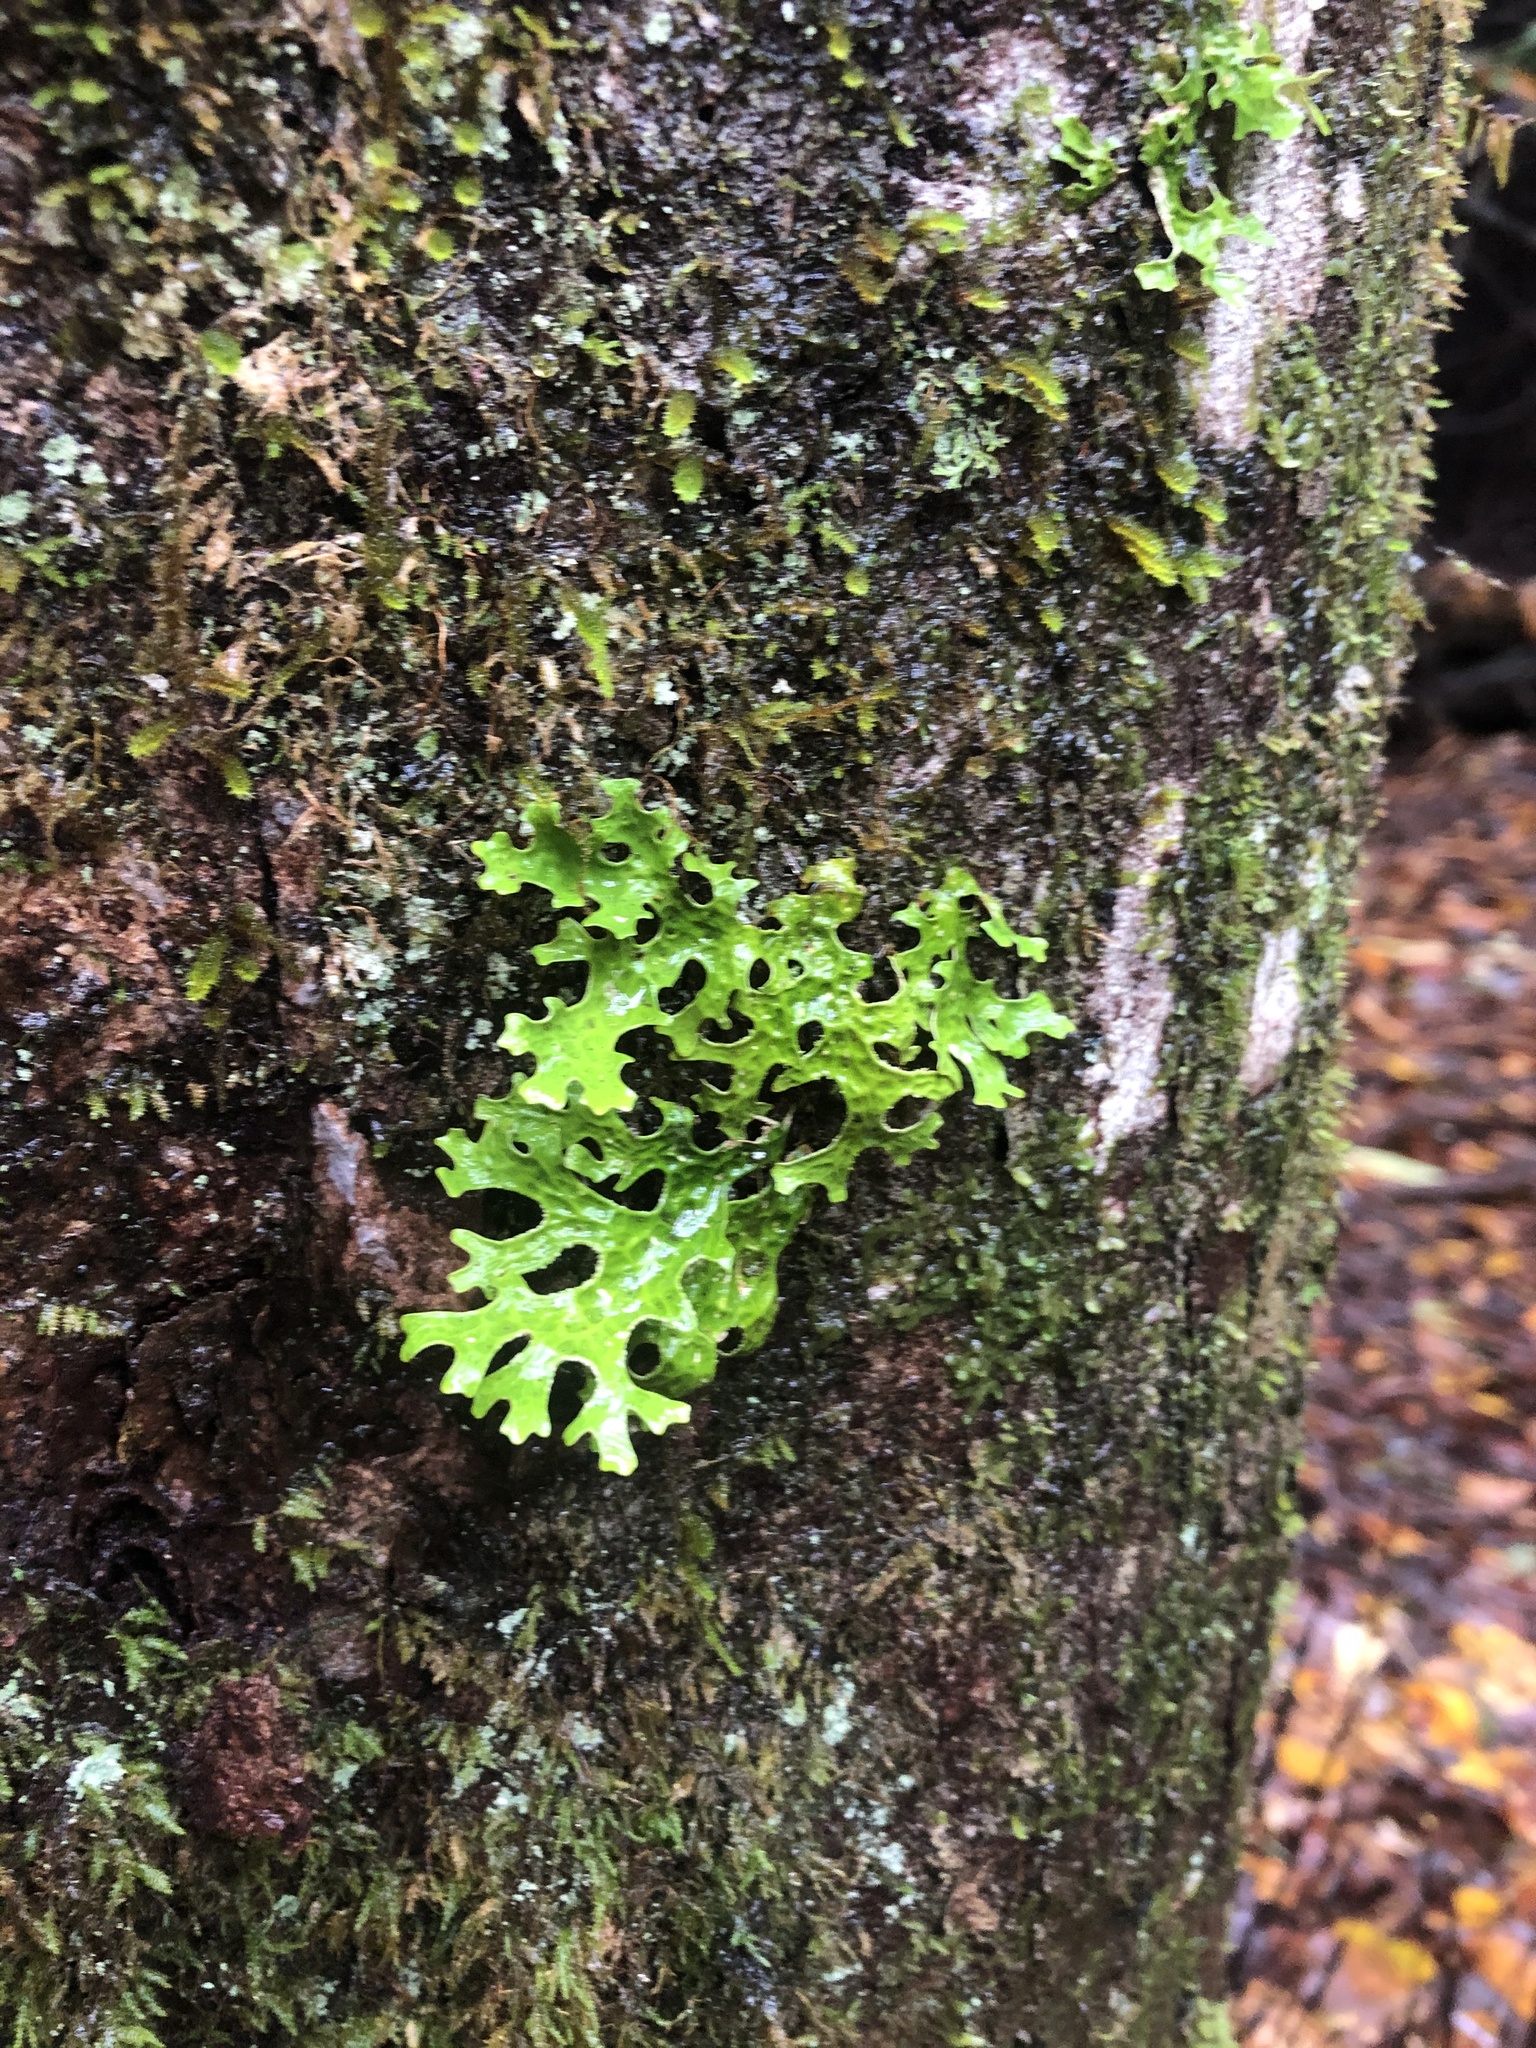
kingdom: Fungi
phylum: Ascomycota
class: Lecanoromycetes
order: Peltigerales
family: Lobariaceae
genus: Lobaria
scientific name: Lobaria pulmonaria
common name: Lungwort
